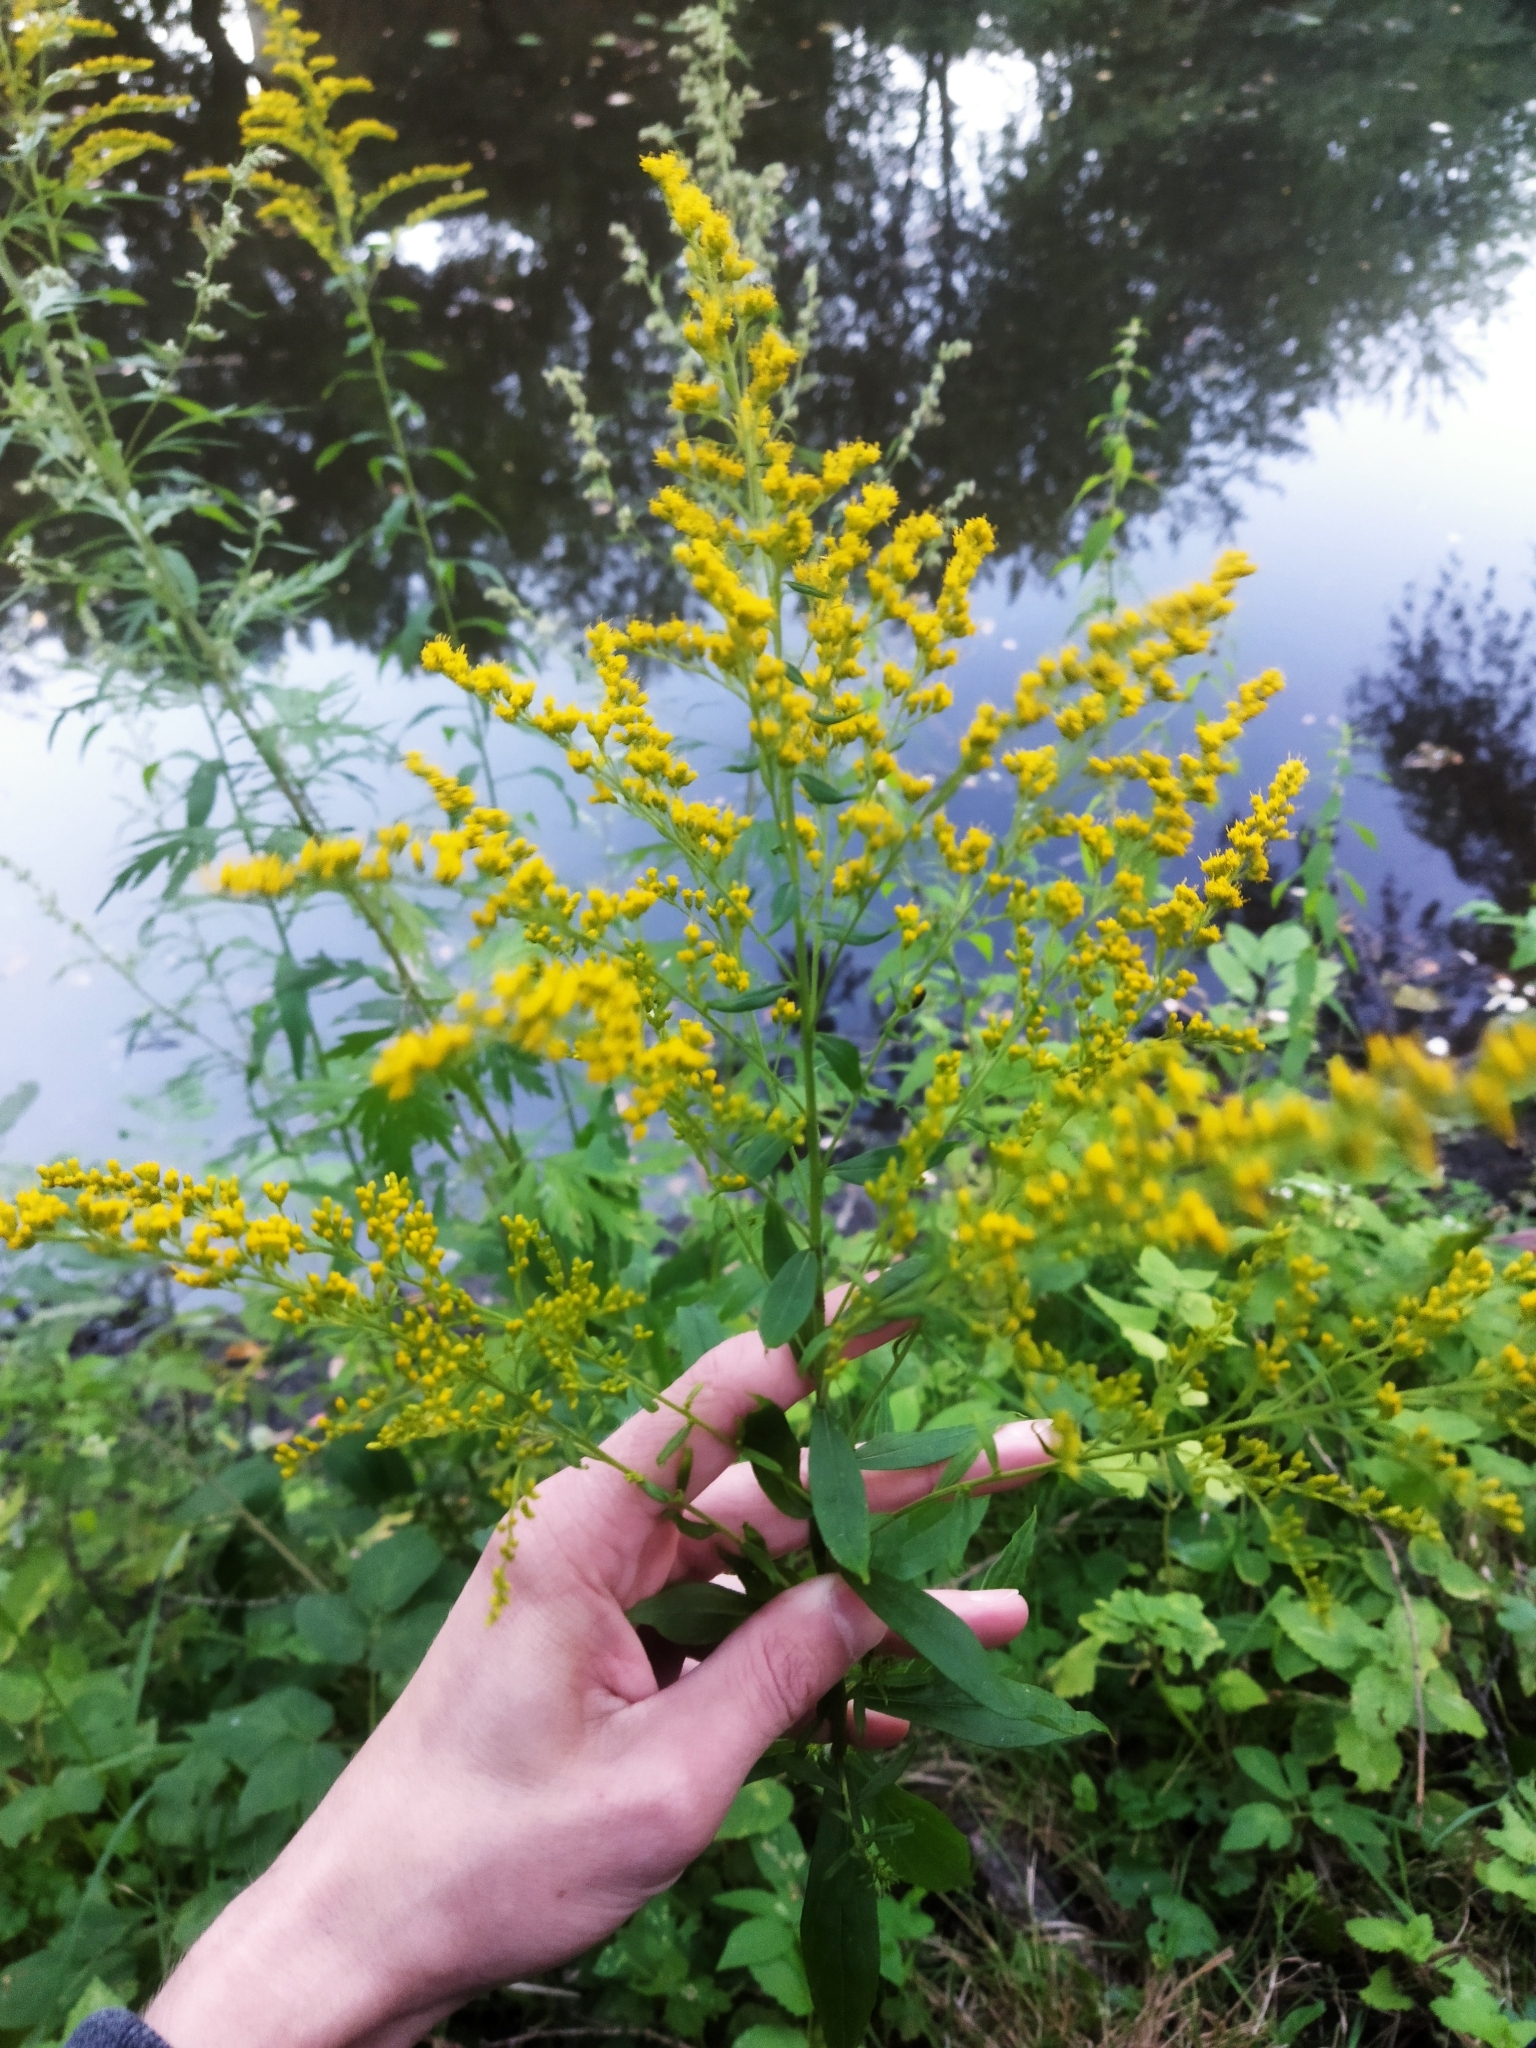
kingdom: Plantae
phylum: Tracheophyta
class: Magnoliopsida
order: Asterales
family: Asteraceae
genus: Solidago
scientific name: Solidago canadensis
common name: Canada goldenrod
